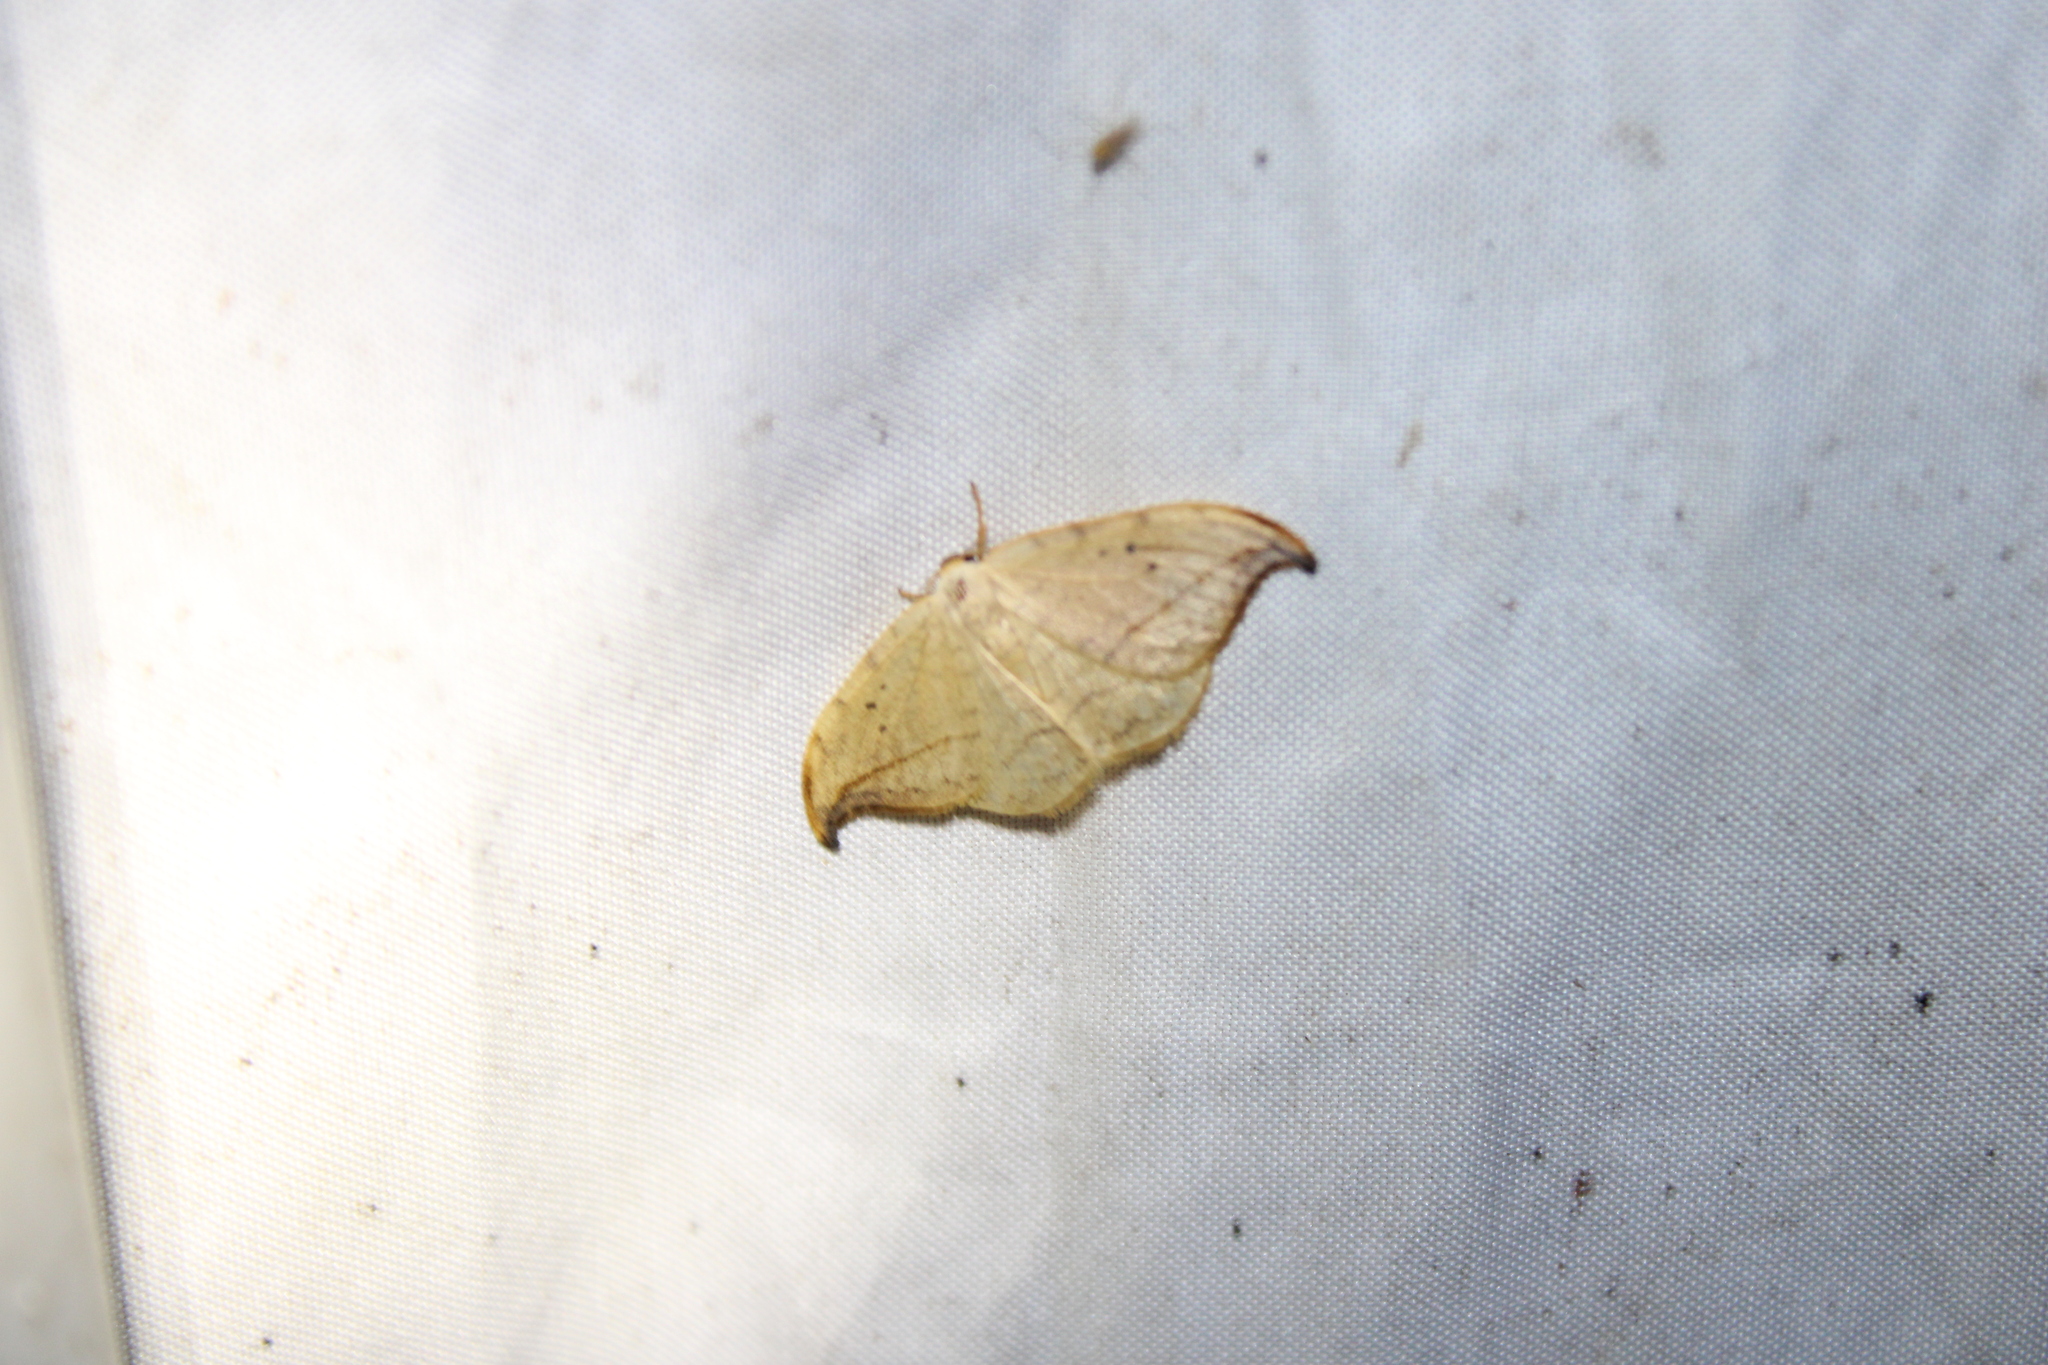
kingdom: Animalia
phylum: Arthropoda
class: Insecta
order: Lepidoptera
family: Drepanidae
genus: Drepana
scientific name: Drepana arcuata
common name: Arched hooktip moth
